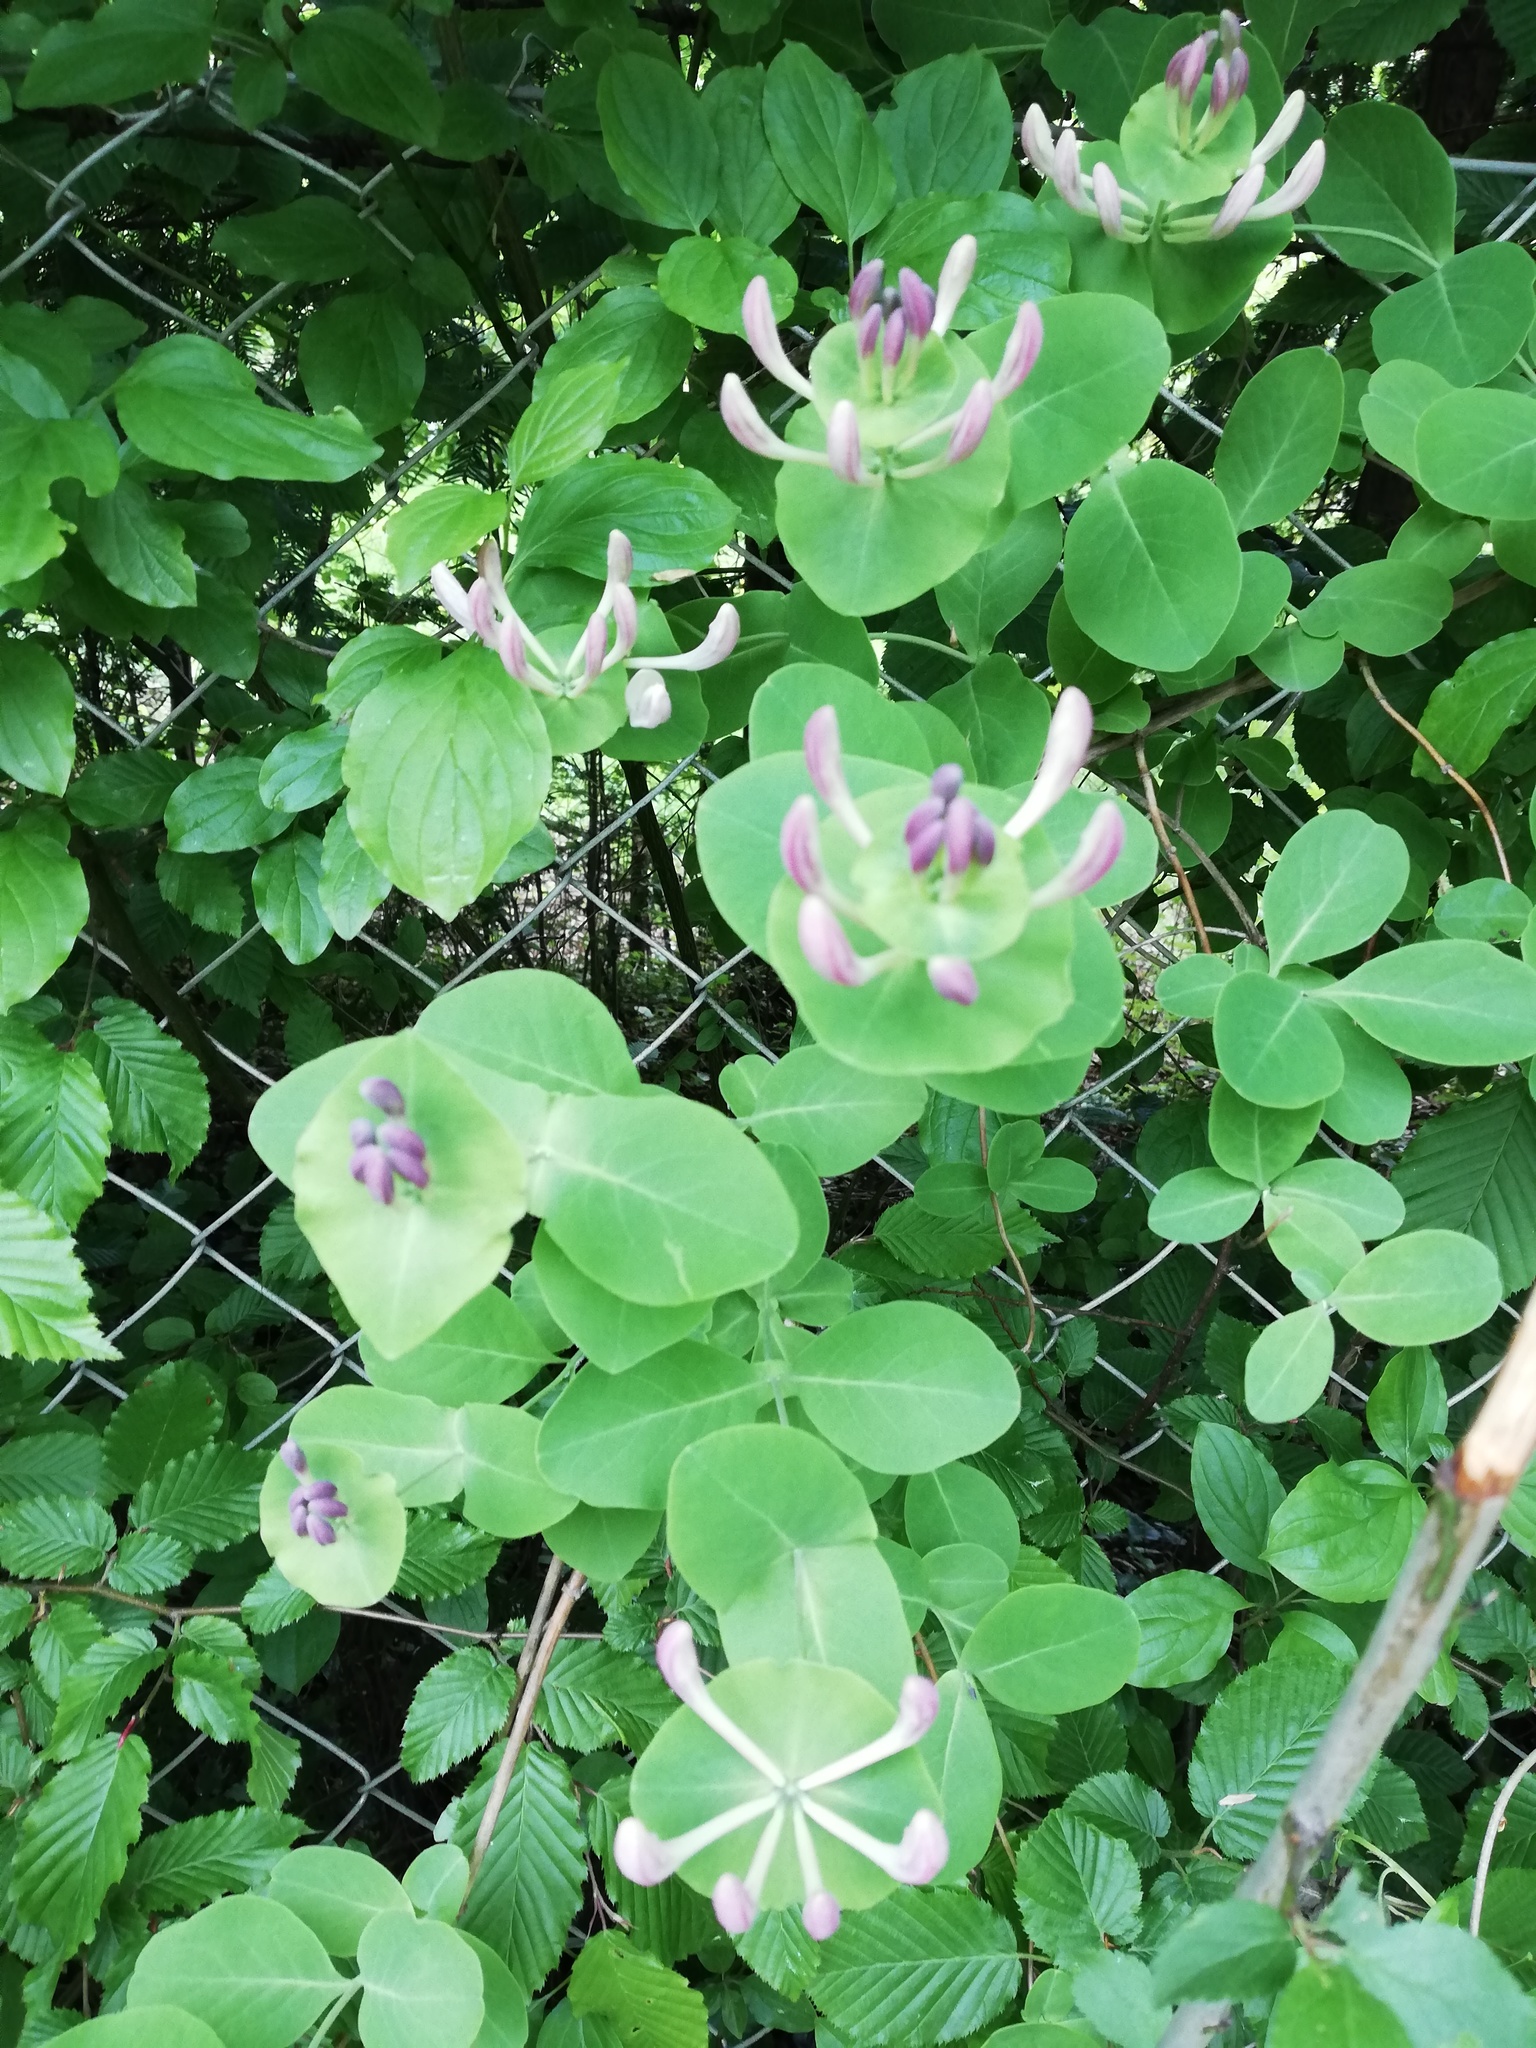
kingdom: Plantae
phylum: Tracheophyta
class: Magnoliopsida
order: Dipsacales
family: Caprifoliaceae
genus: Lonicera
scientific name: Lonicera caprifolium
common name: Perfoliate honeysuckle
